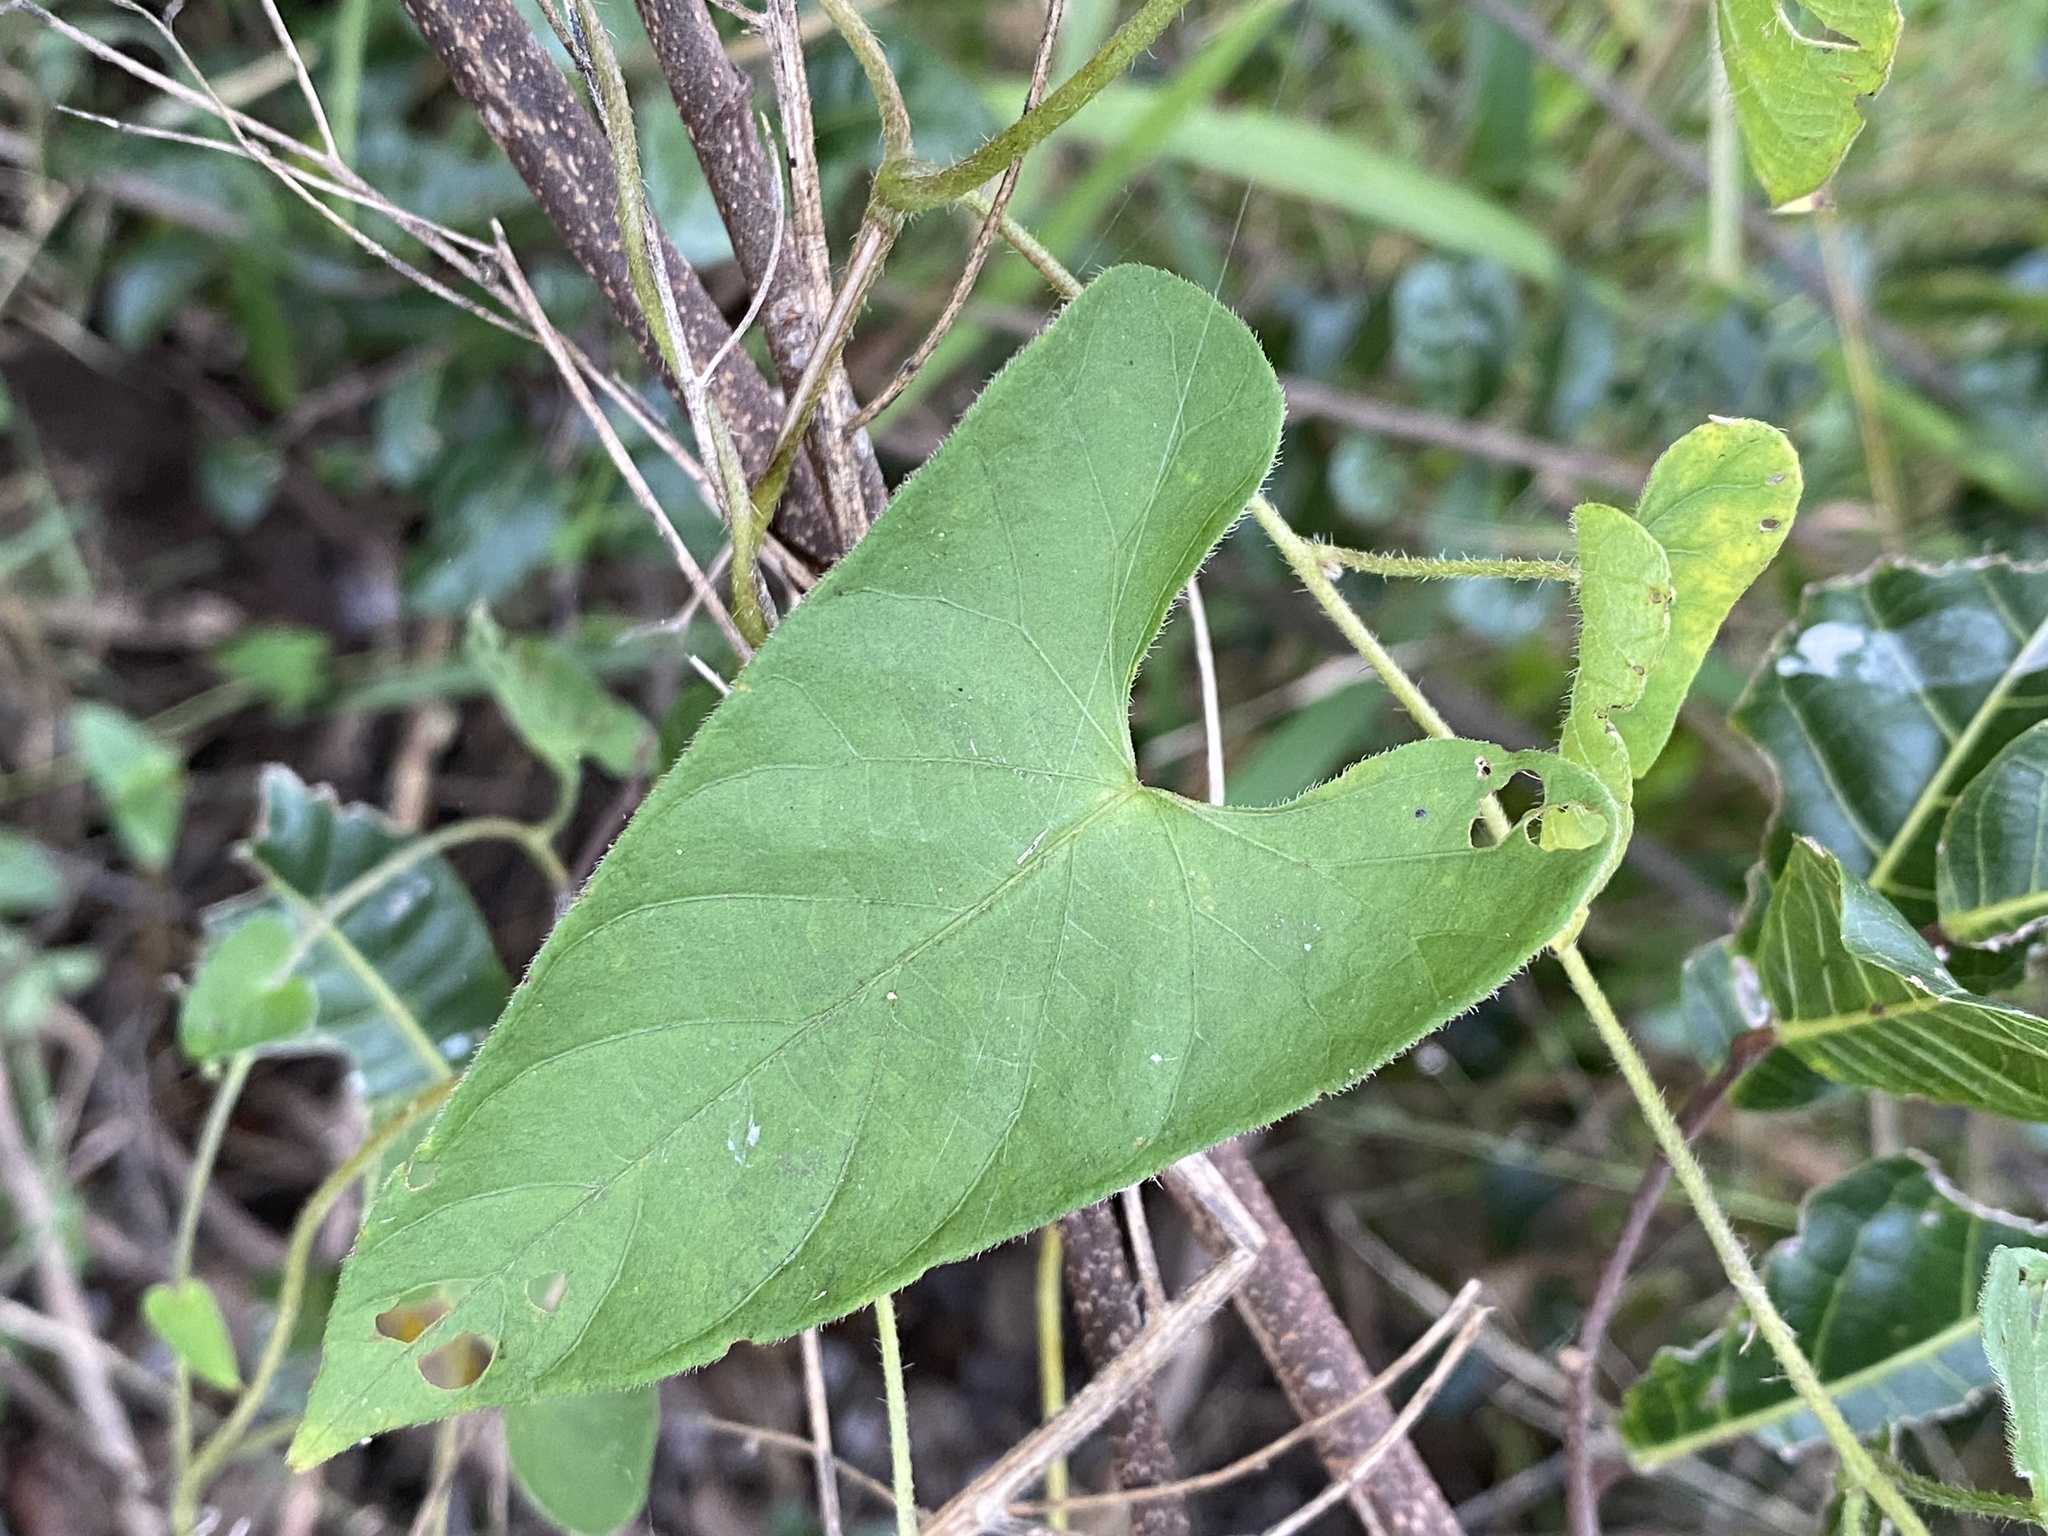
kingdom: Plantae
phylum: Tracheophyta
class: Magnoliopsida
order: Solanales
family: Convolvulaceae
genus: Ipomoea
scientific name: Ipomoea biflora
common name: Bellvine
